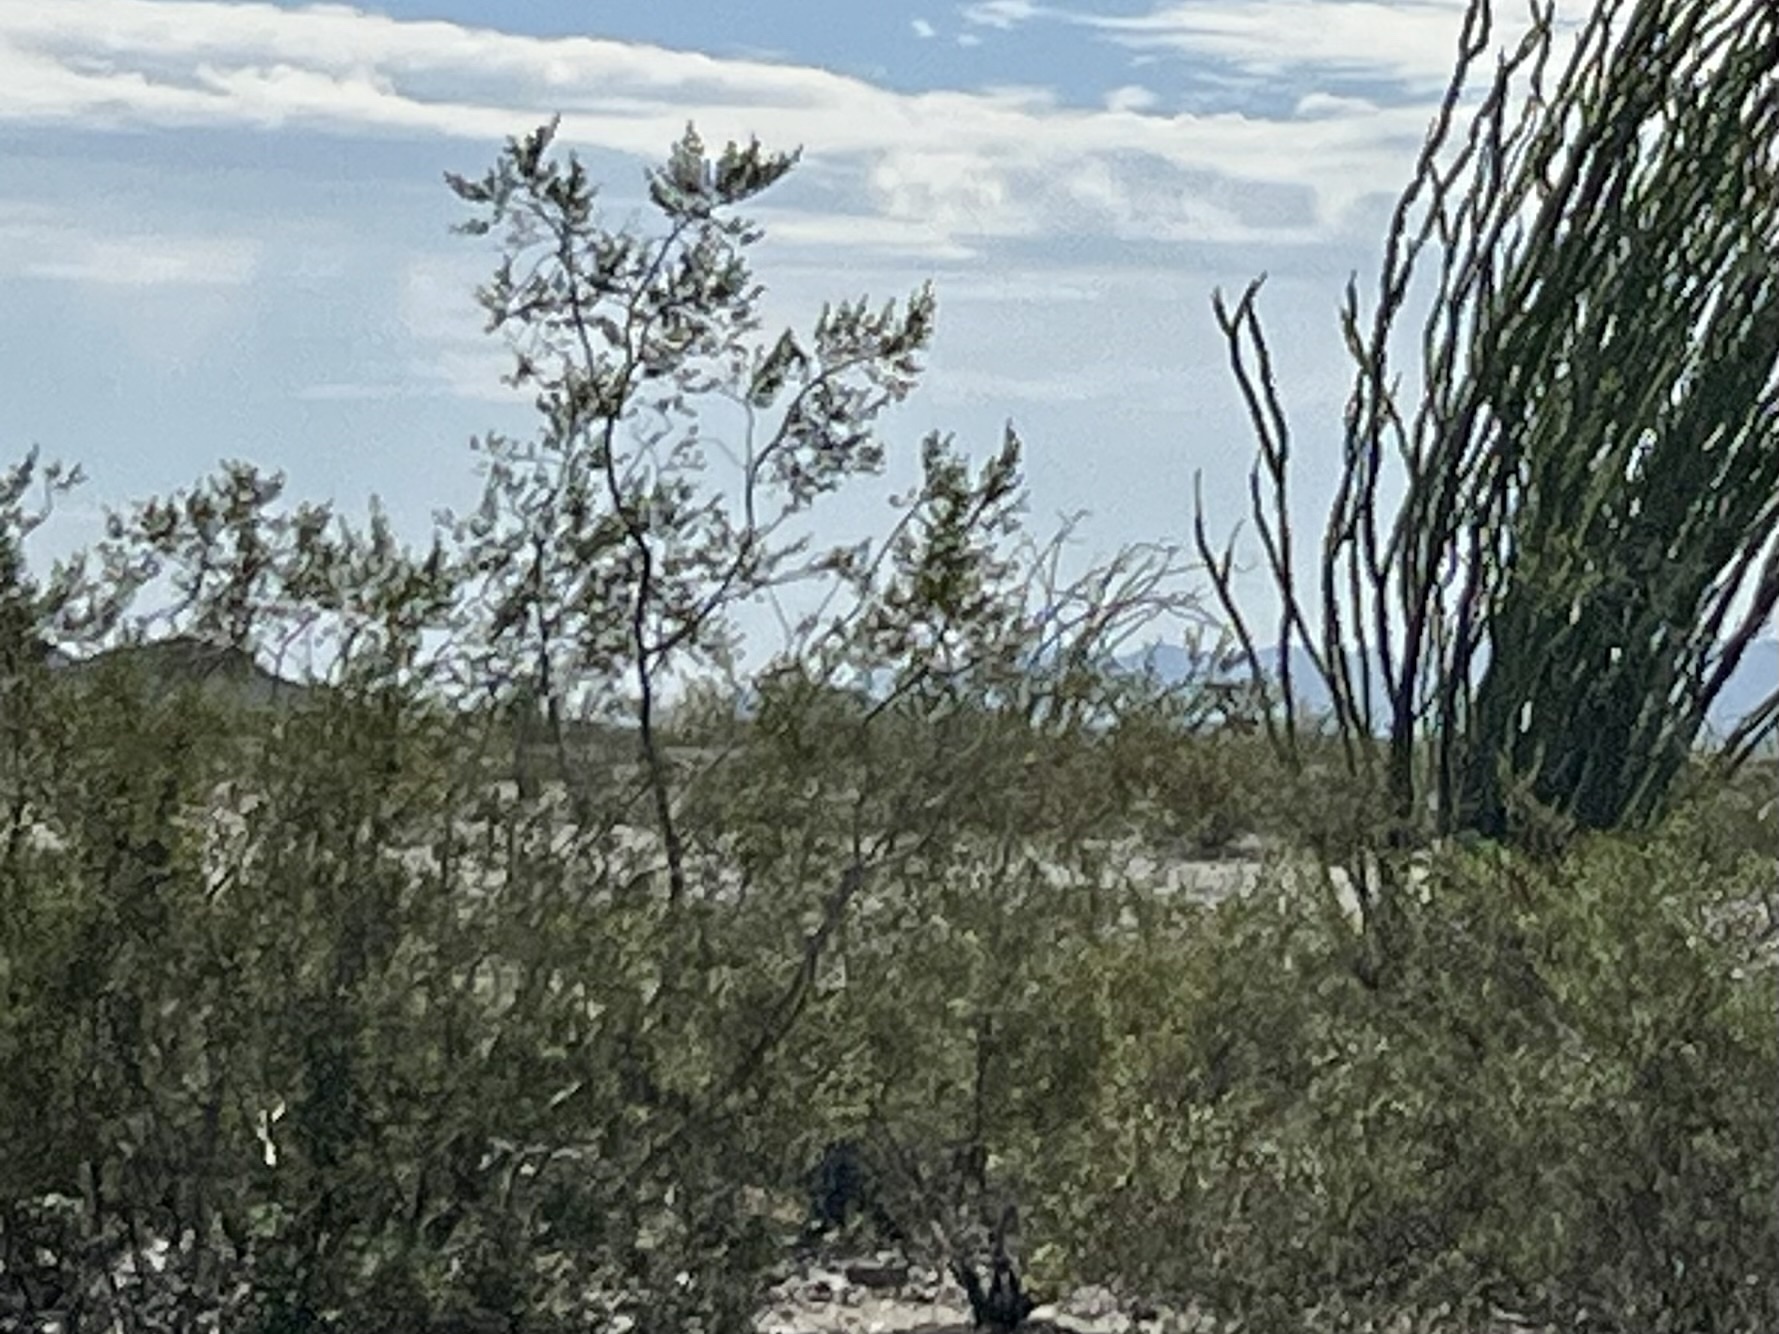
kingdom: Plantae
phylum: Tracheophyta
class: Magnoliopsida
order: Zygophyllales
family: Zygophyllaceae
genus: Larrea
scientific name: Larrea tridentata
